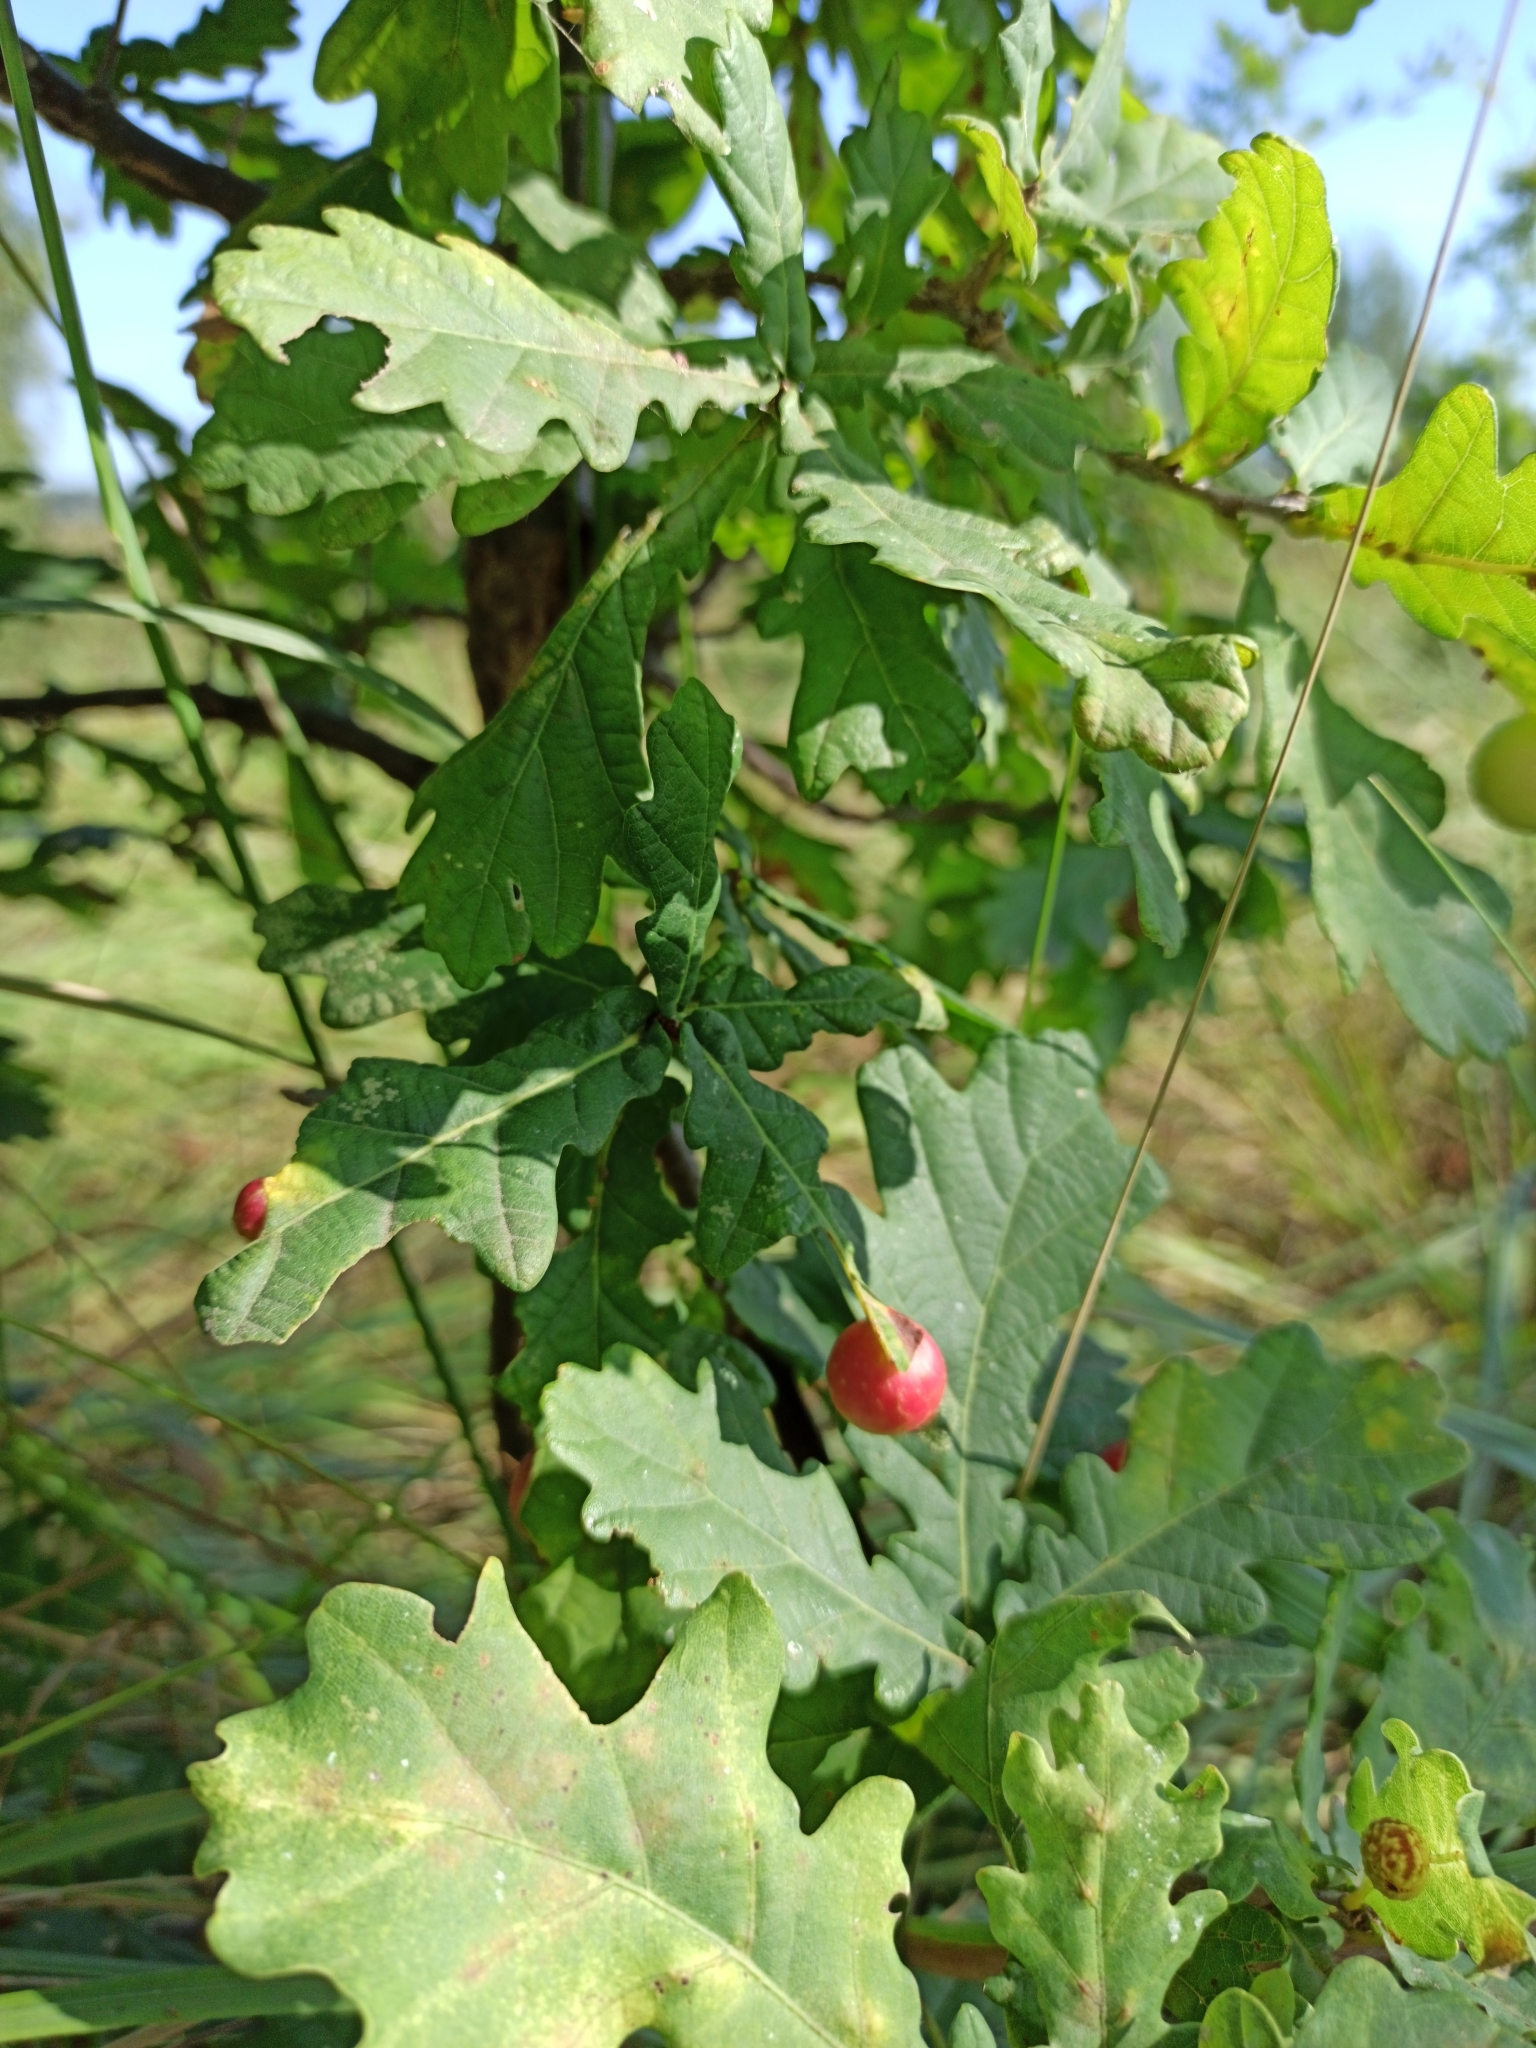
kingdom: Animalia
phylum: Arthropoda
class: Insecta
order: Hymenoptera
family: Cynipidae
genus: Cynips
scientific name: Cynips quercusfolii
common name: Cherry gall
